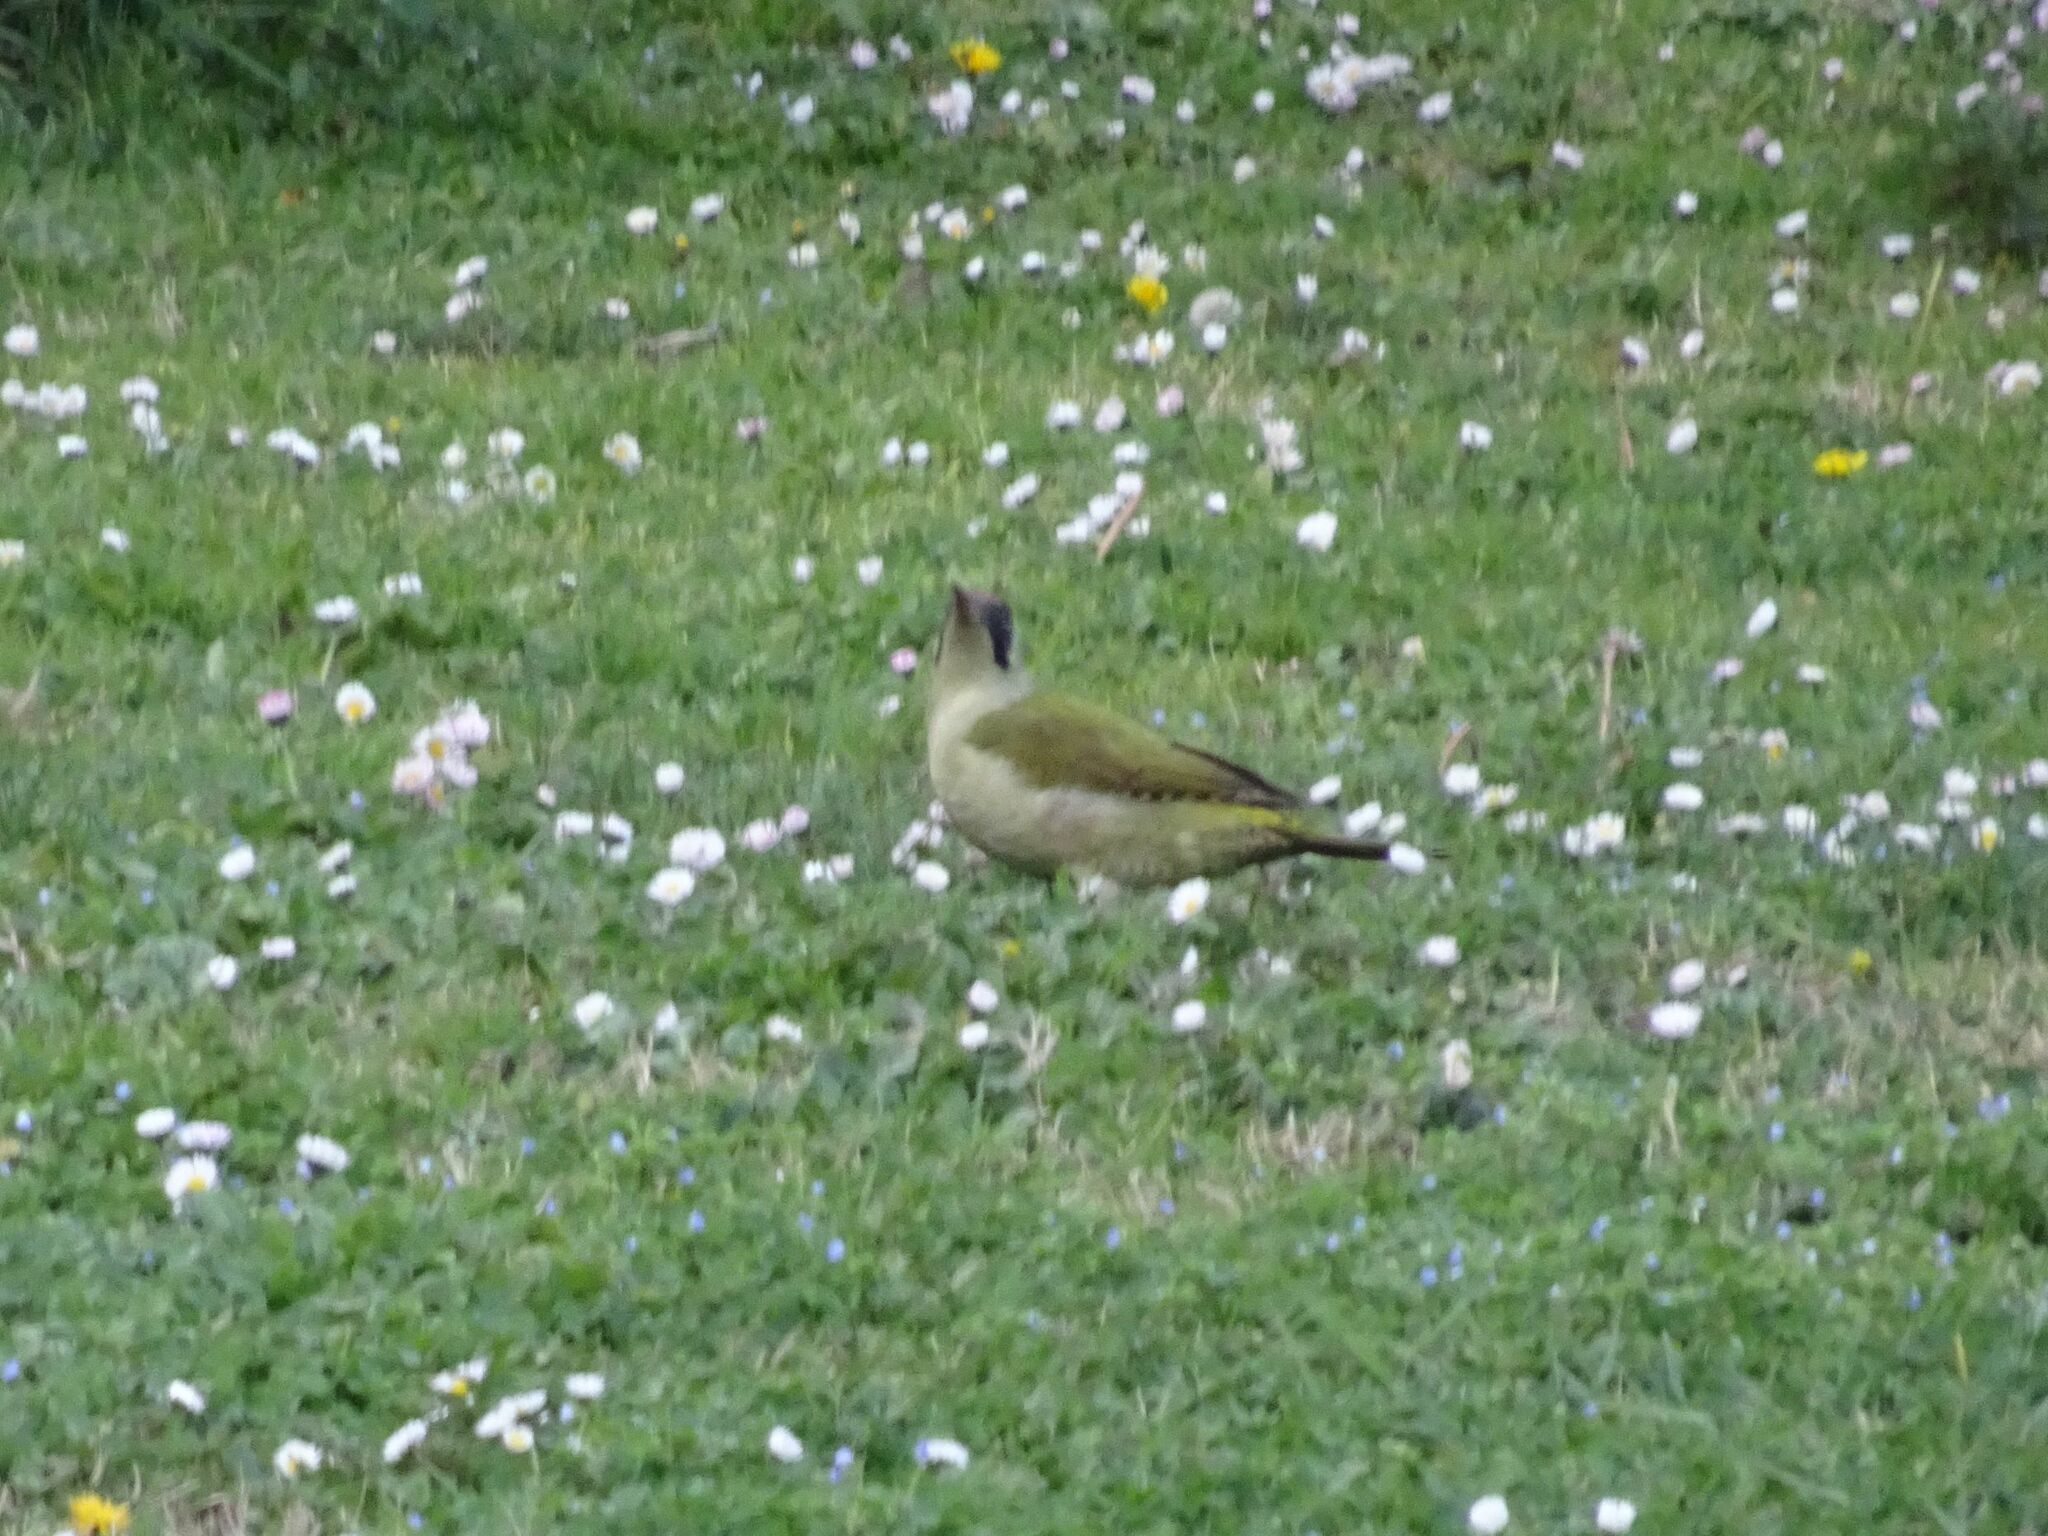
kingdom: Animalia
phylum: Chordata
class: Aves
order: Piciformes
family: Picidae
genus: Picus
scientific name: Picus viridis
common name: European green woodpecker
